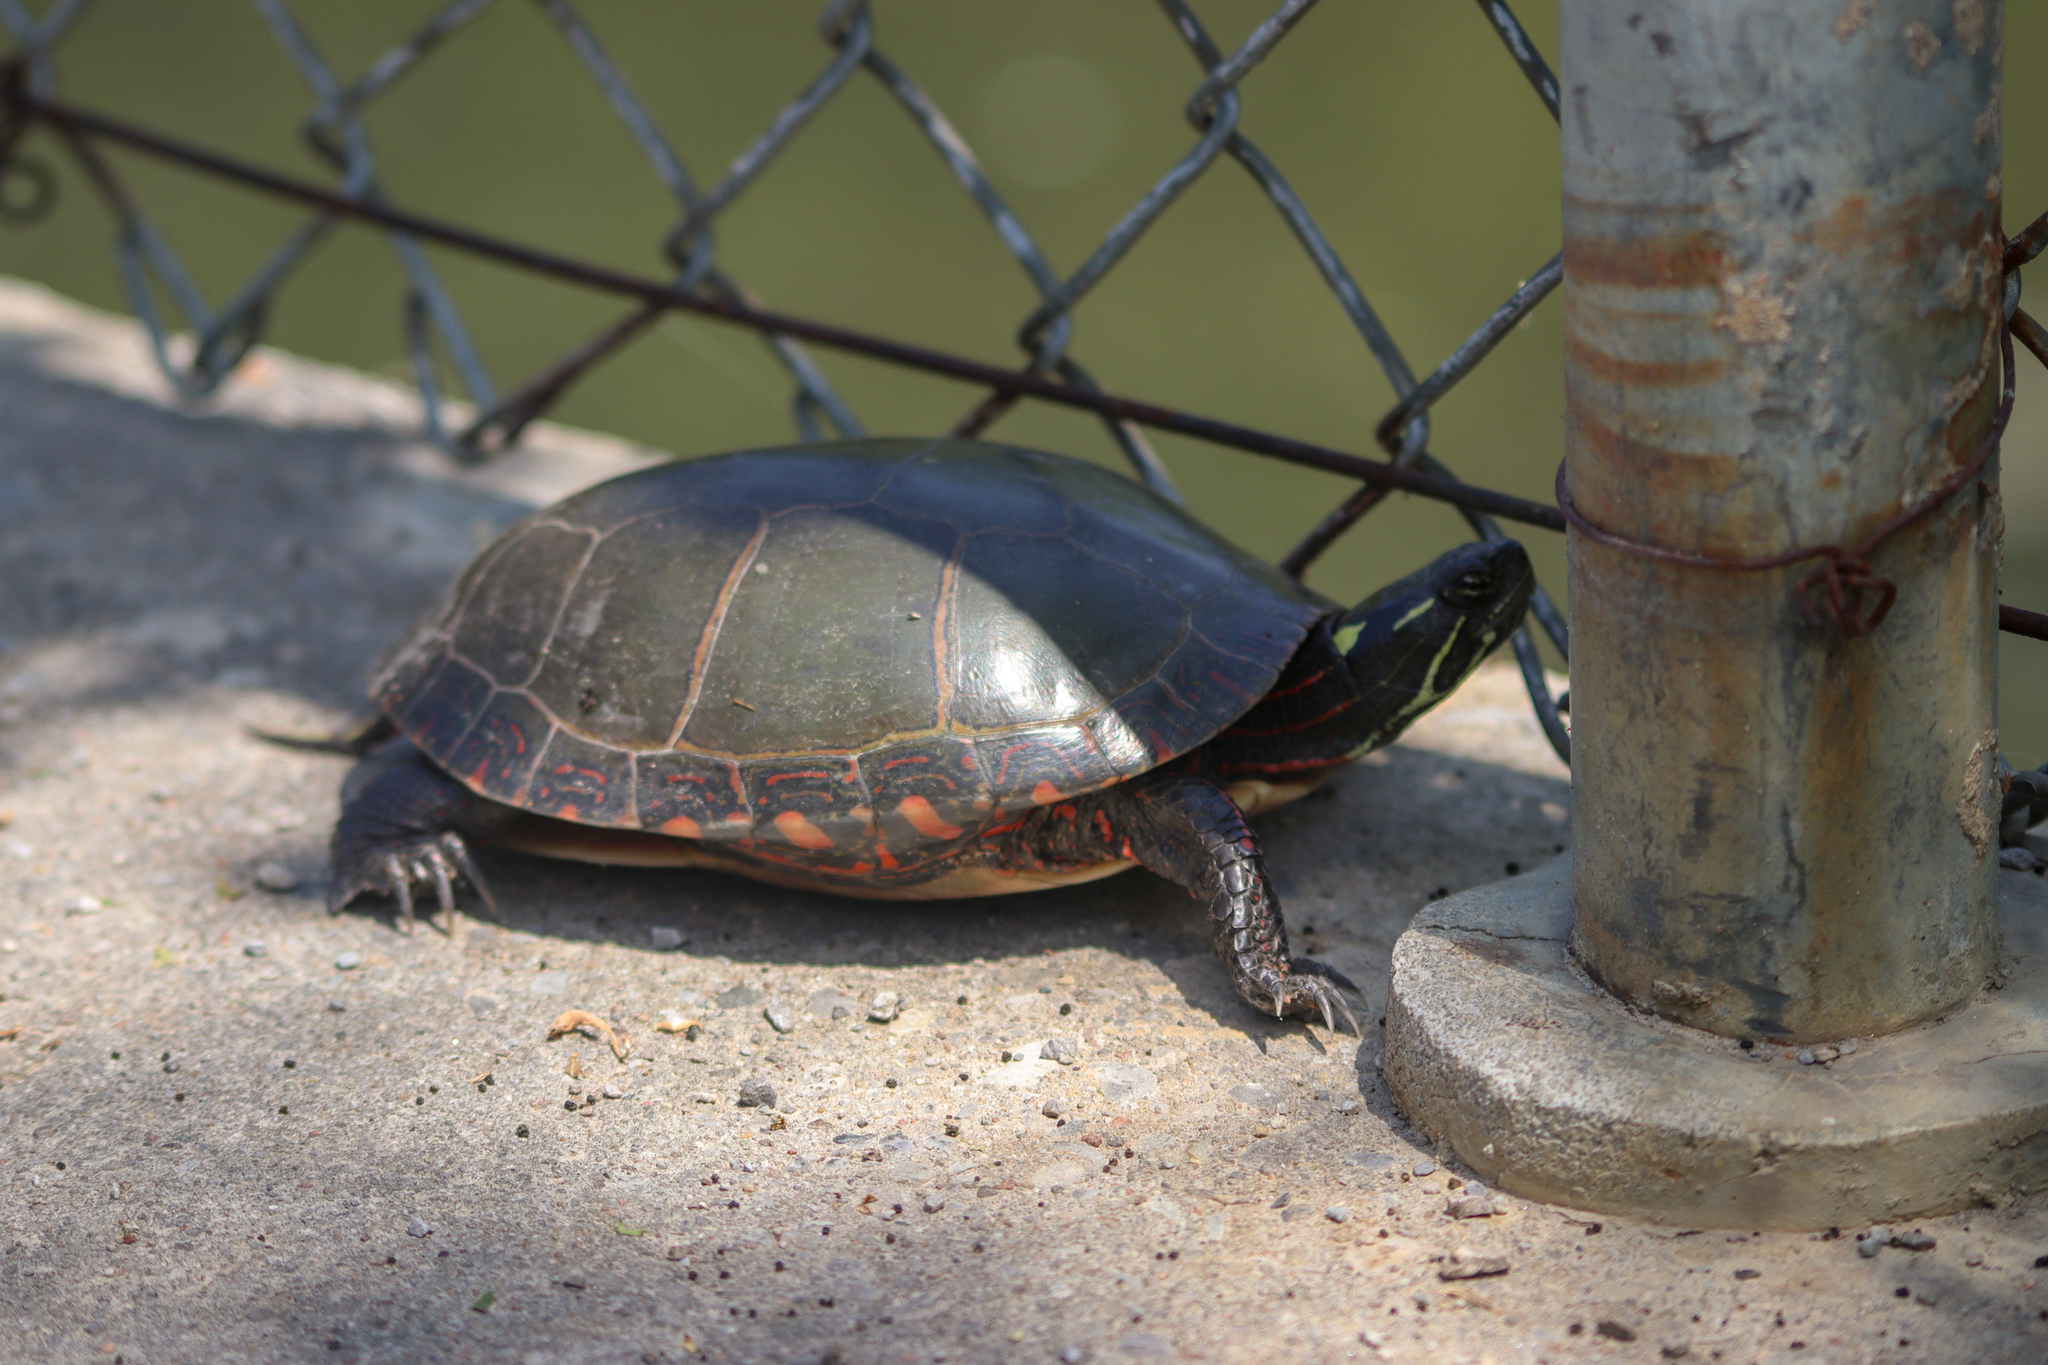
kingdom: Animalia
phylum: Chordata
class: Testudines
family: Emydidae
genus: Chrysemys
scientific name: Chrysemys picta
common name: Painted turtle
